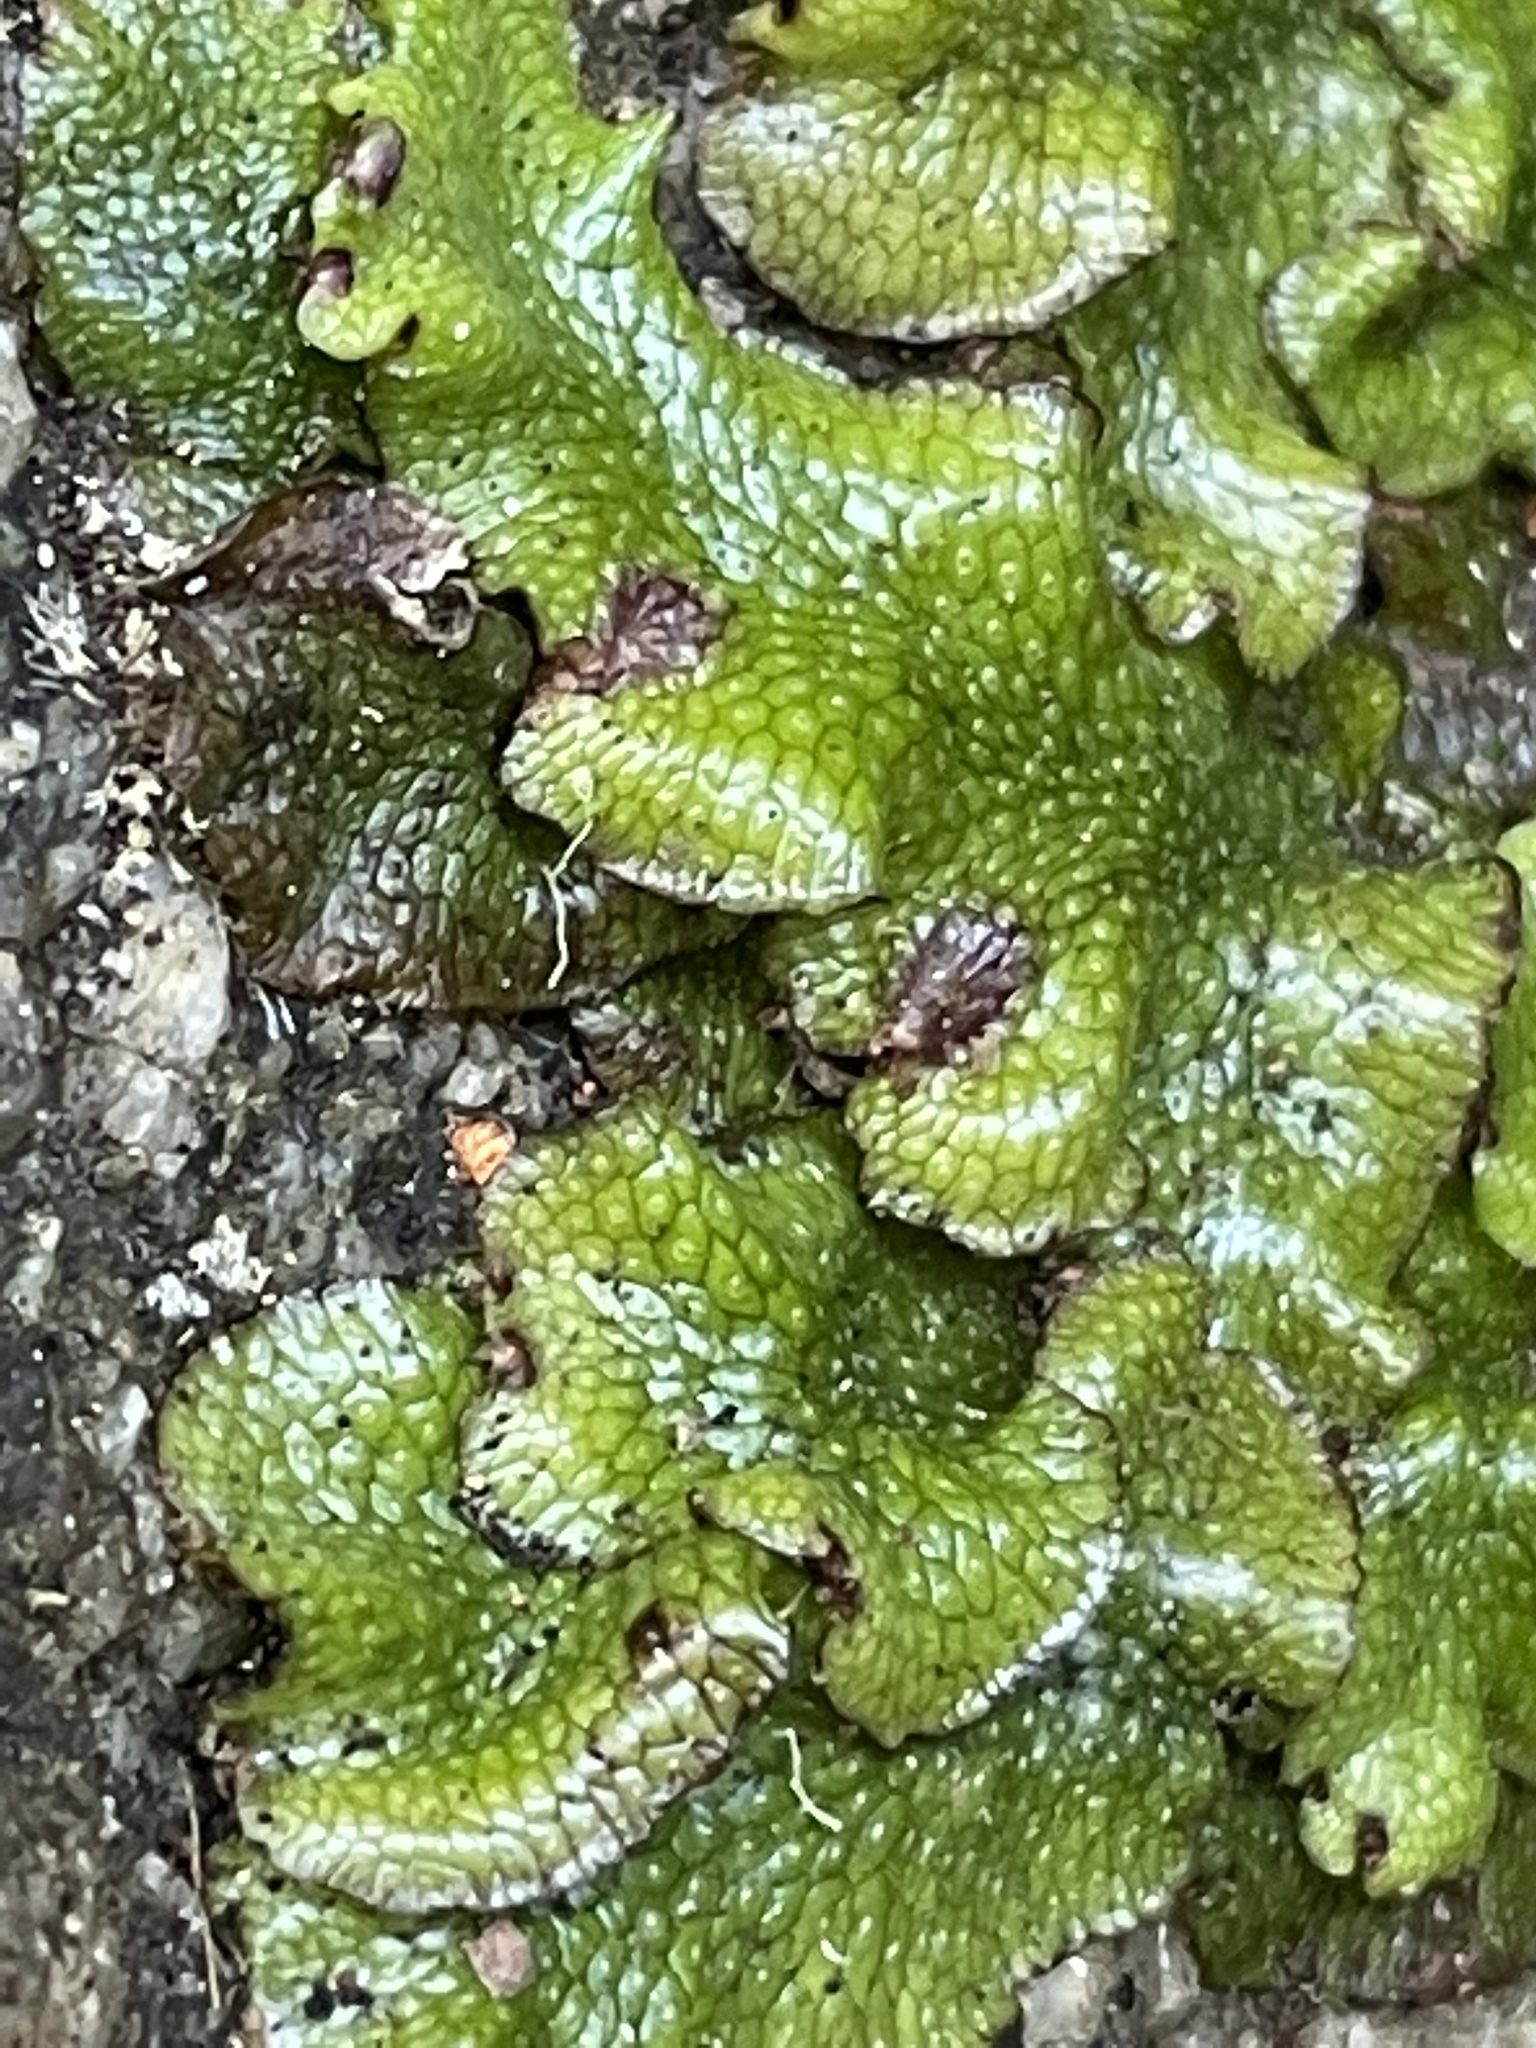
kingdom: Plantae
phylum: Marchantiophyta
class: Marchantiopsida
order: Marchantiales
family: Conocephalaceae
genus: Conocephalum
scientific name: Conocephalum salebrosum
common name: Cat-tongue liverwort
